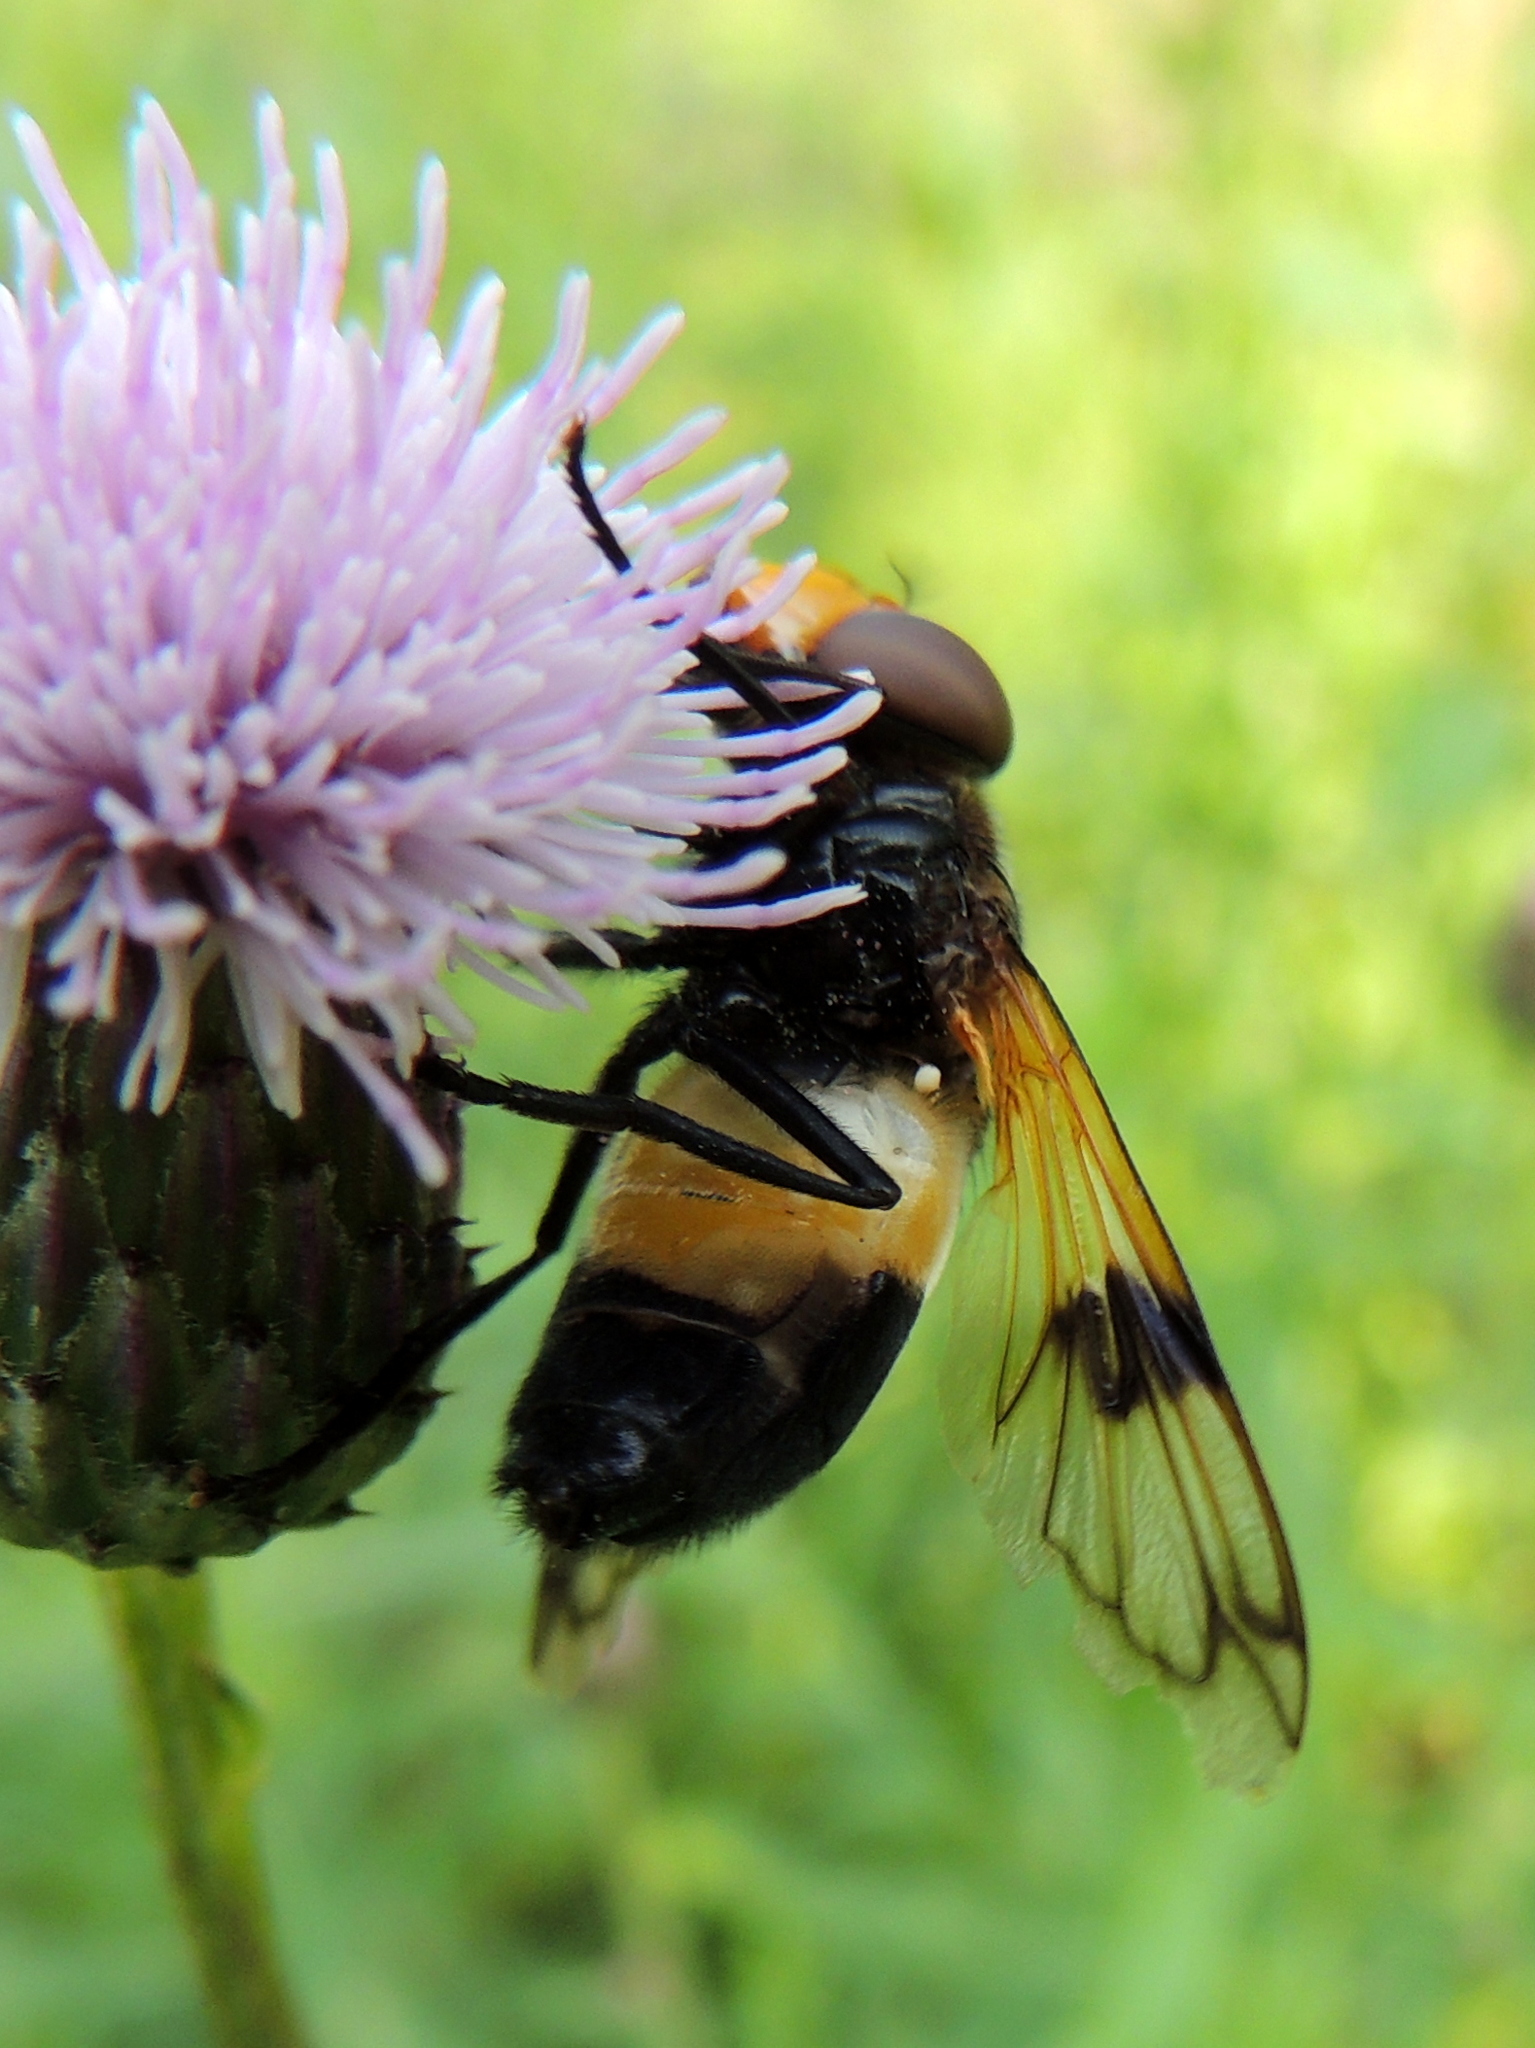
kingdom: Animalia
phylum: Arthropoda
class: Insecta
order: Diptera
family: Syrphidae
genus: Volucella
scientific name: Volucella pellucens
